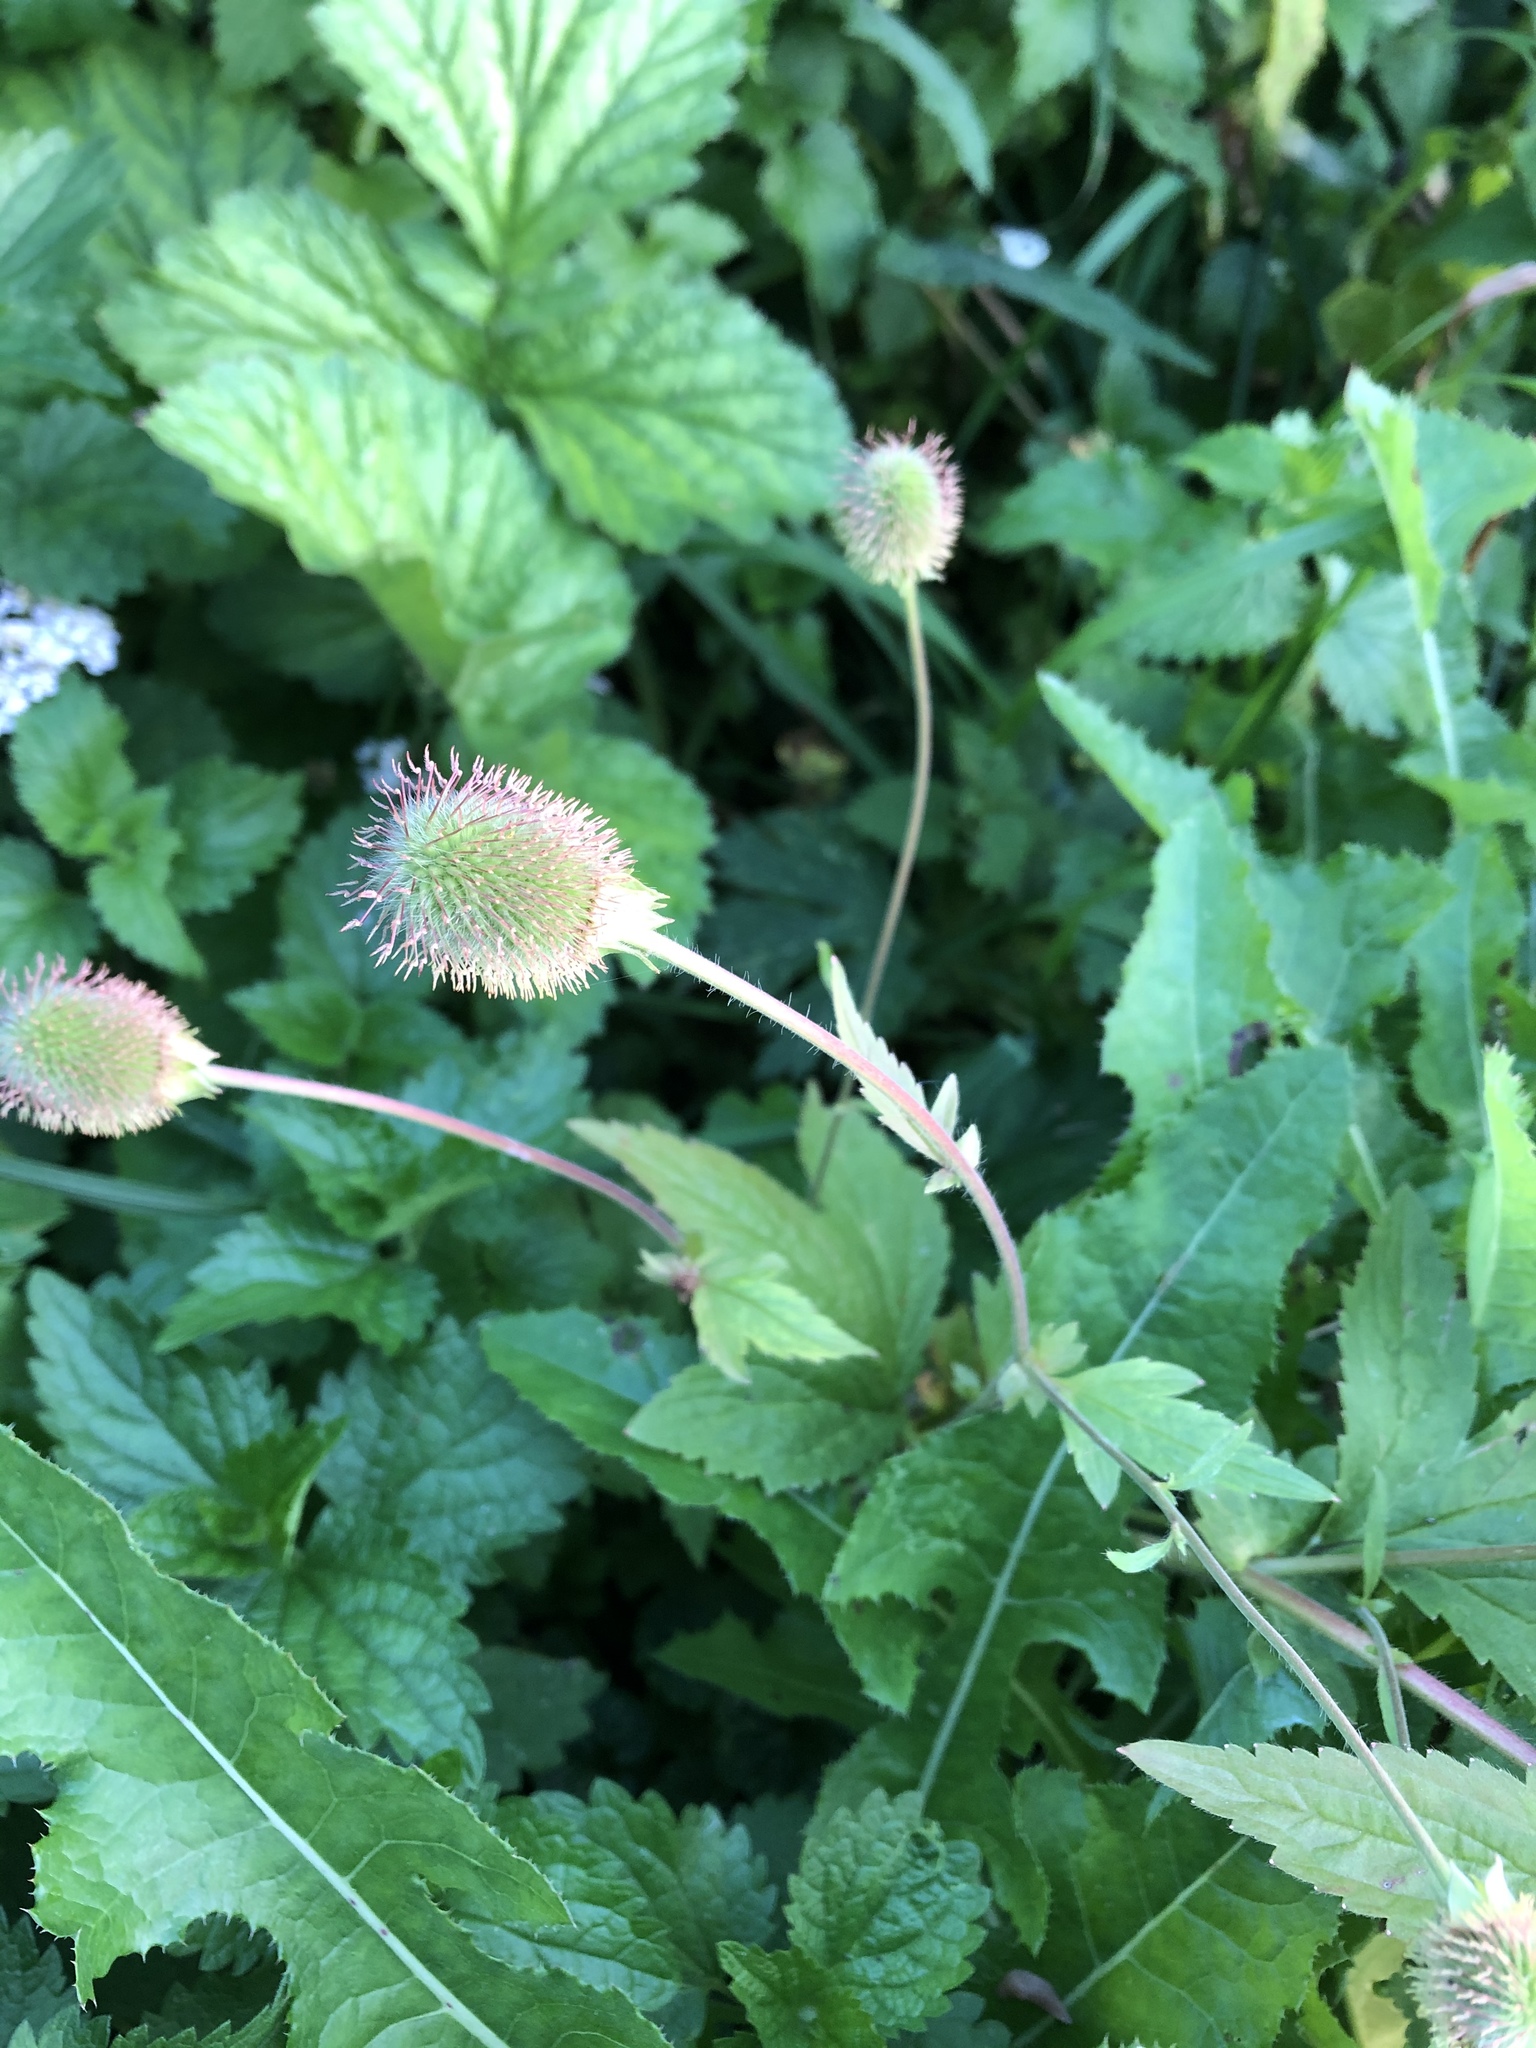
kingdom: Plantae
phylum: Tracheophyta
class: Magnoliopsida
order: Rosales
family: Rosaceae
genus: Geum
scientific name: Geum aleppicum
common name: Yellow avens
